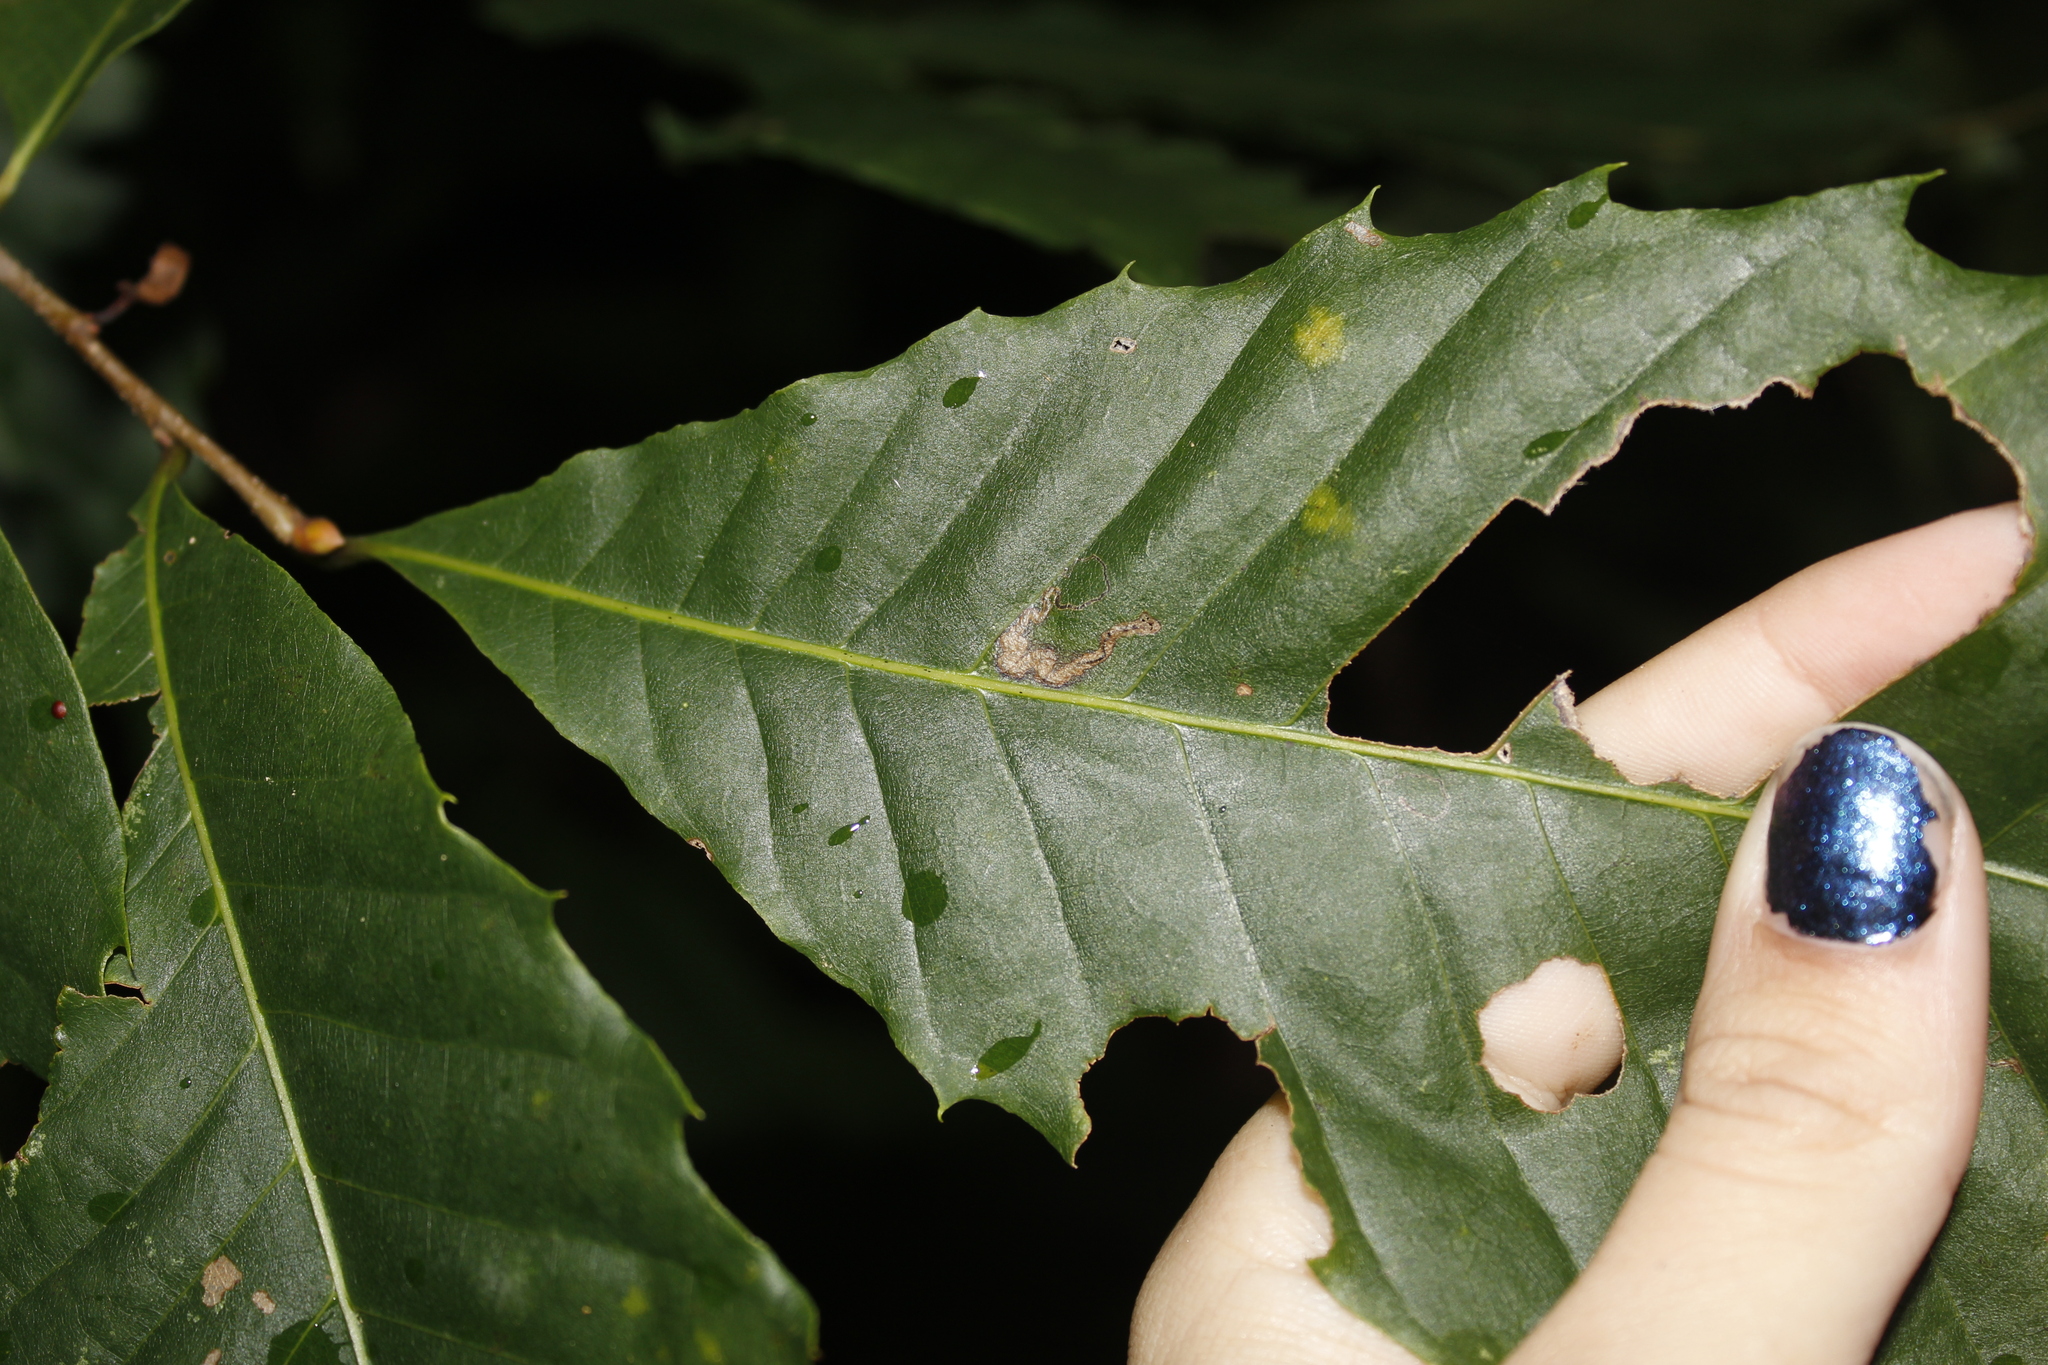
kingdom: Animalia
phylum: Arthropoda
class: Insecta
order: Lepidoptera
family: Nepticulidae
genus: Stigmella
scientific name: Stigmella
